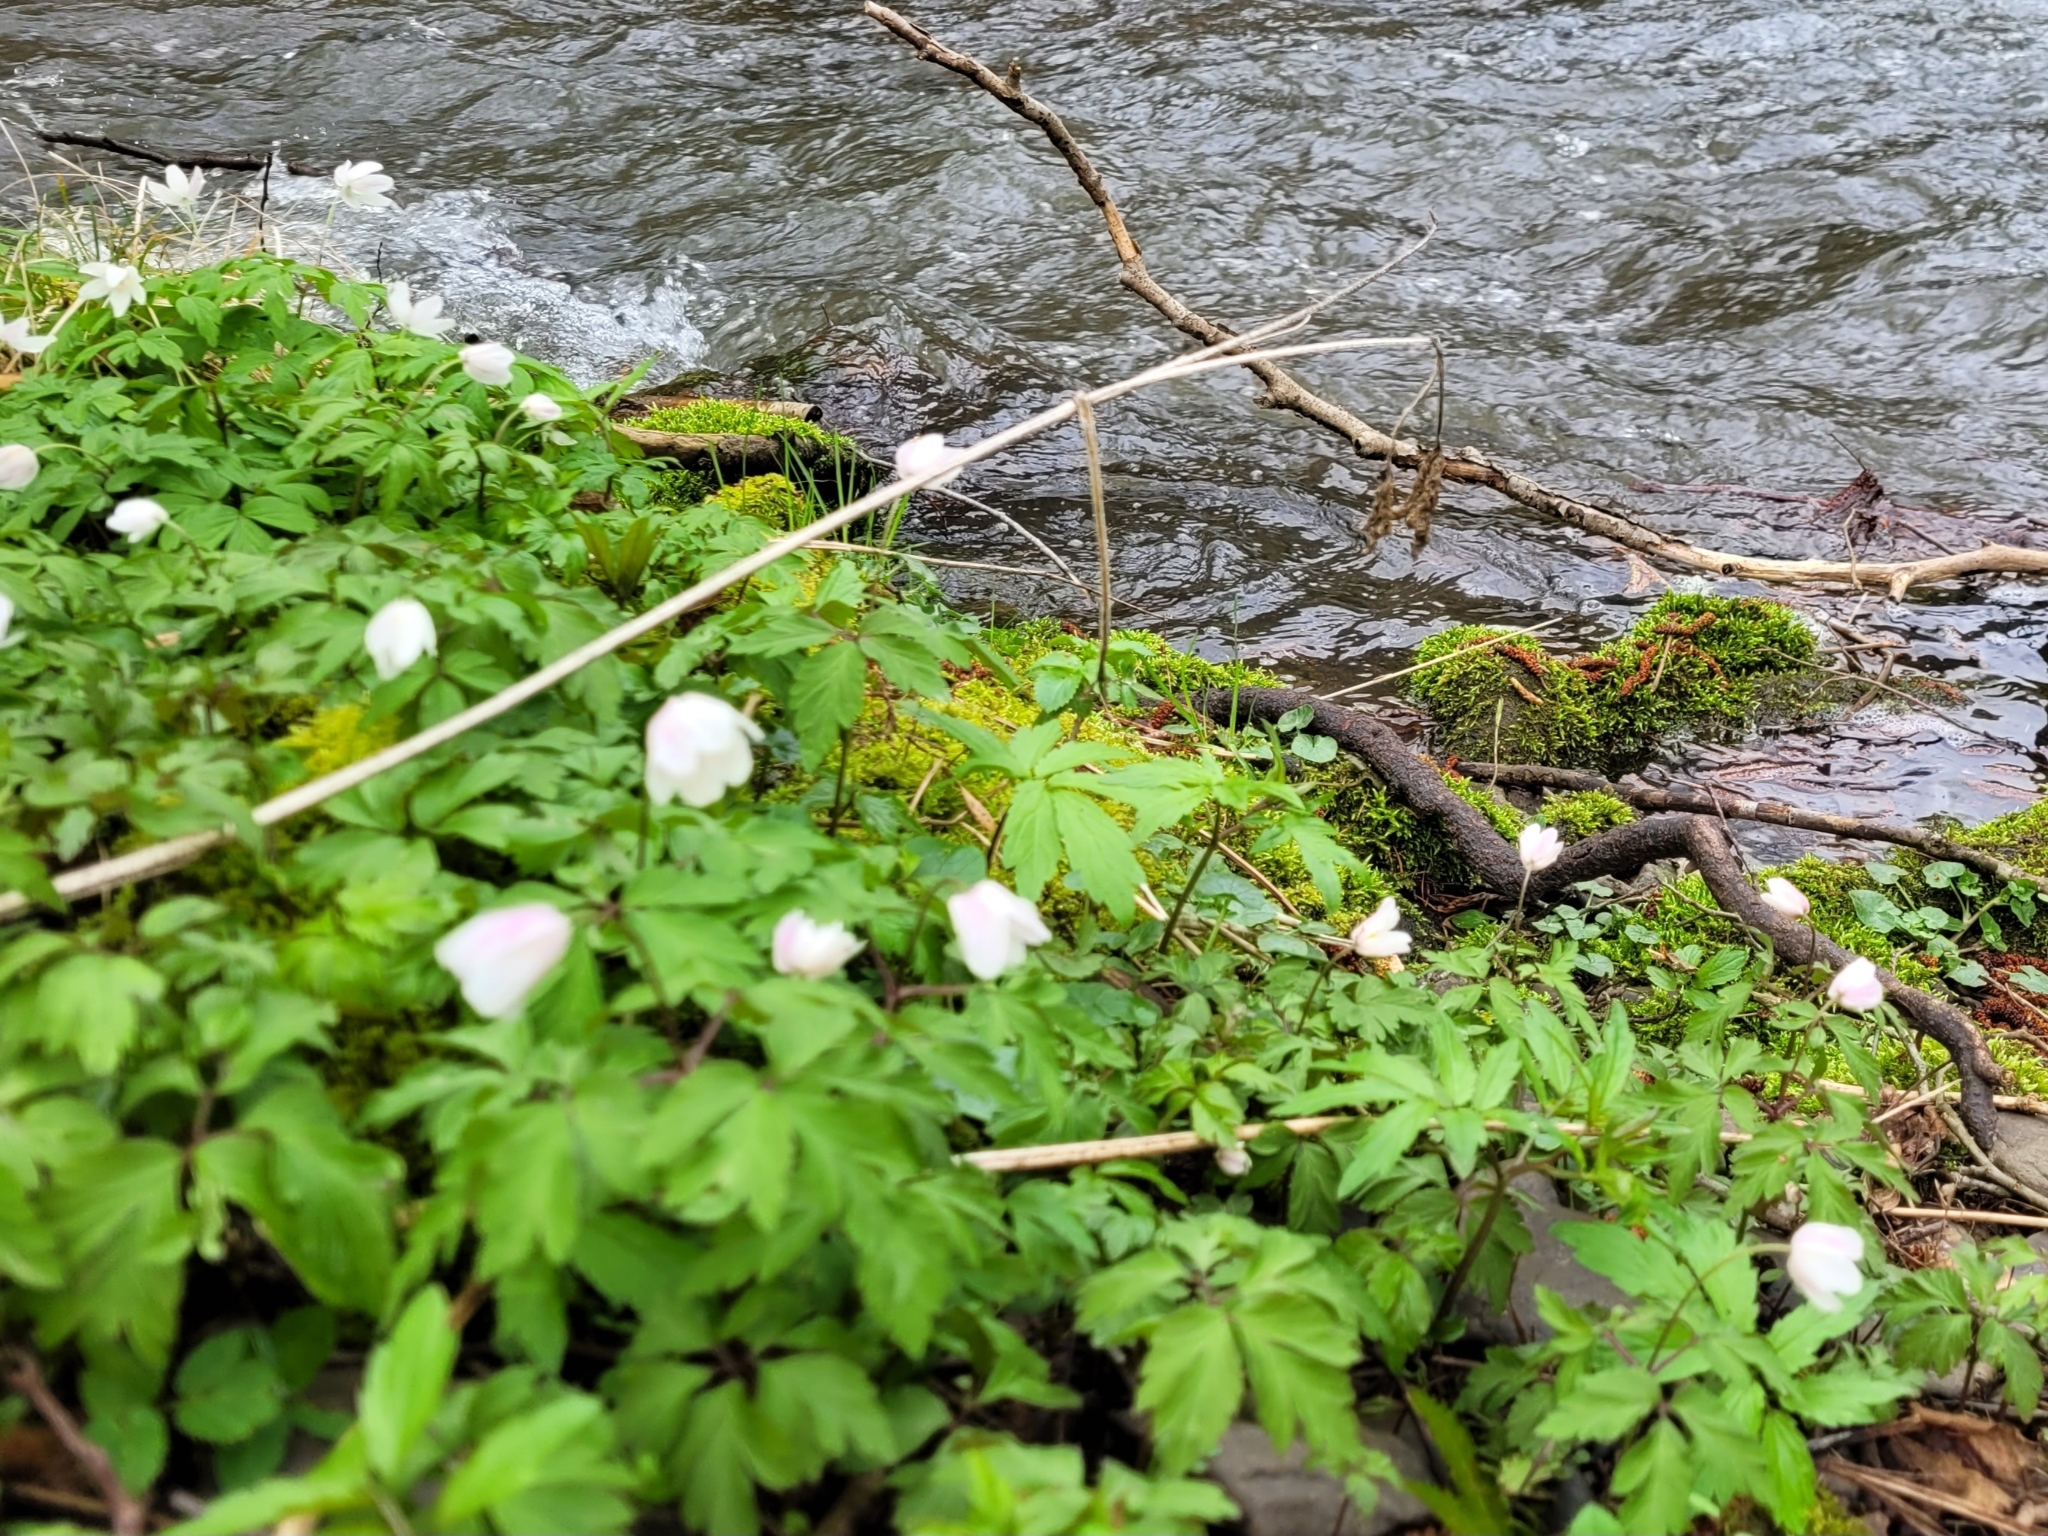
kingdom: Plantae
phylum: Tracheophyta
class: Magnoliopsida
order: Ranunculales
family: Ranunculaceae
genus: Anemone
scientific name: Anemone nemorosa
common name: Wood anemone
